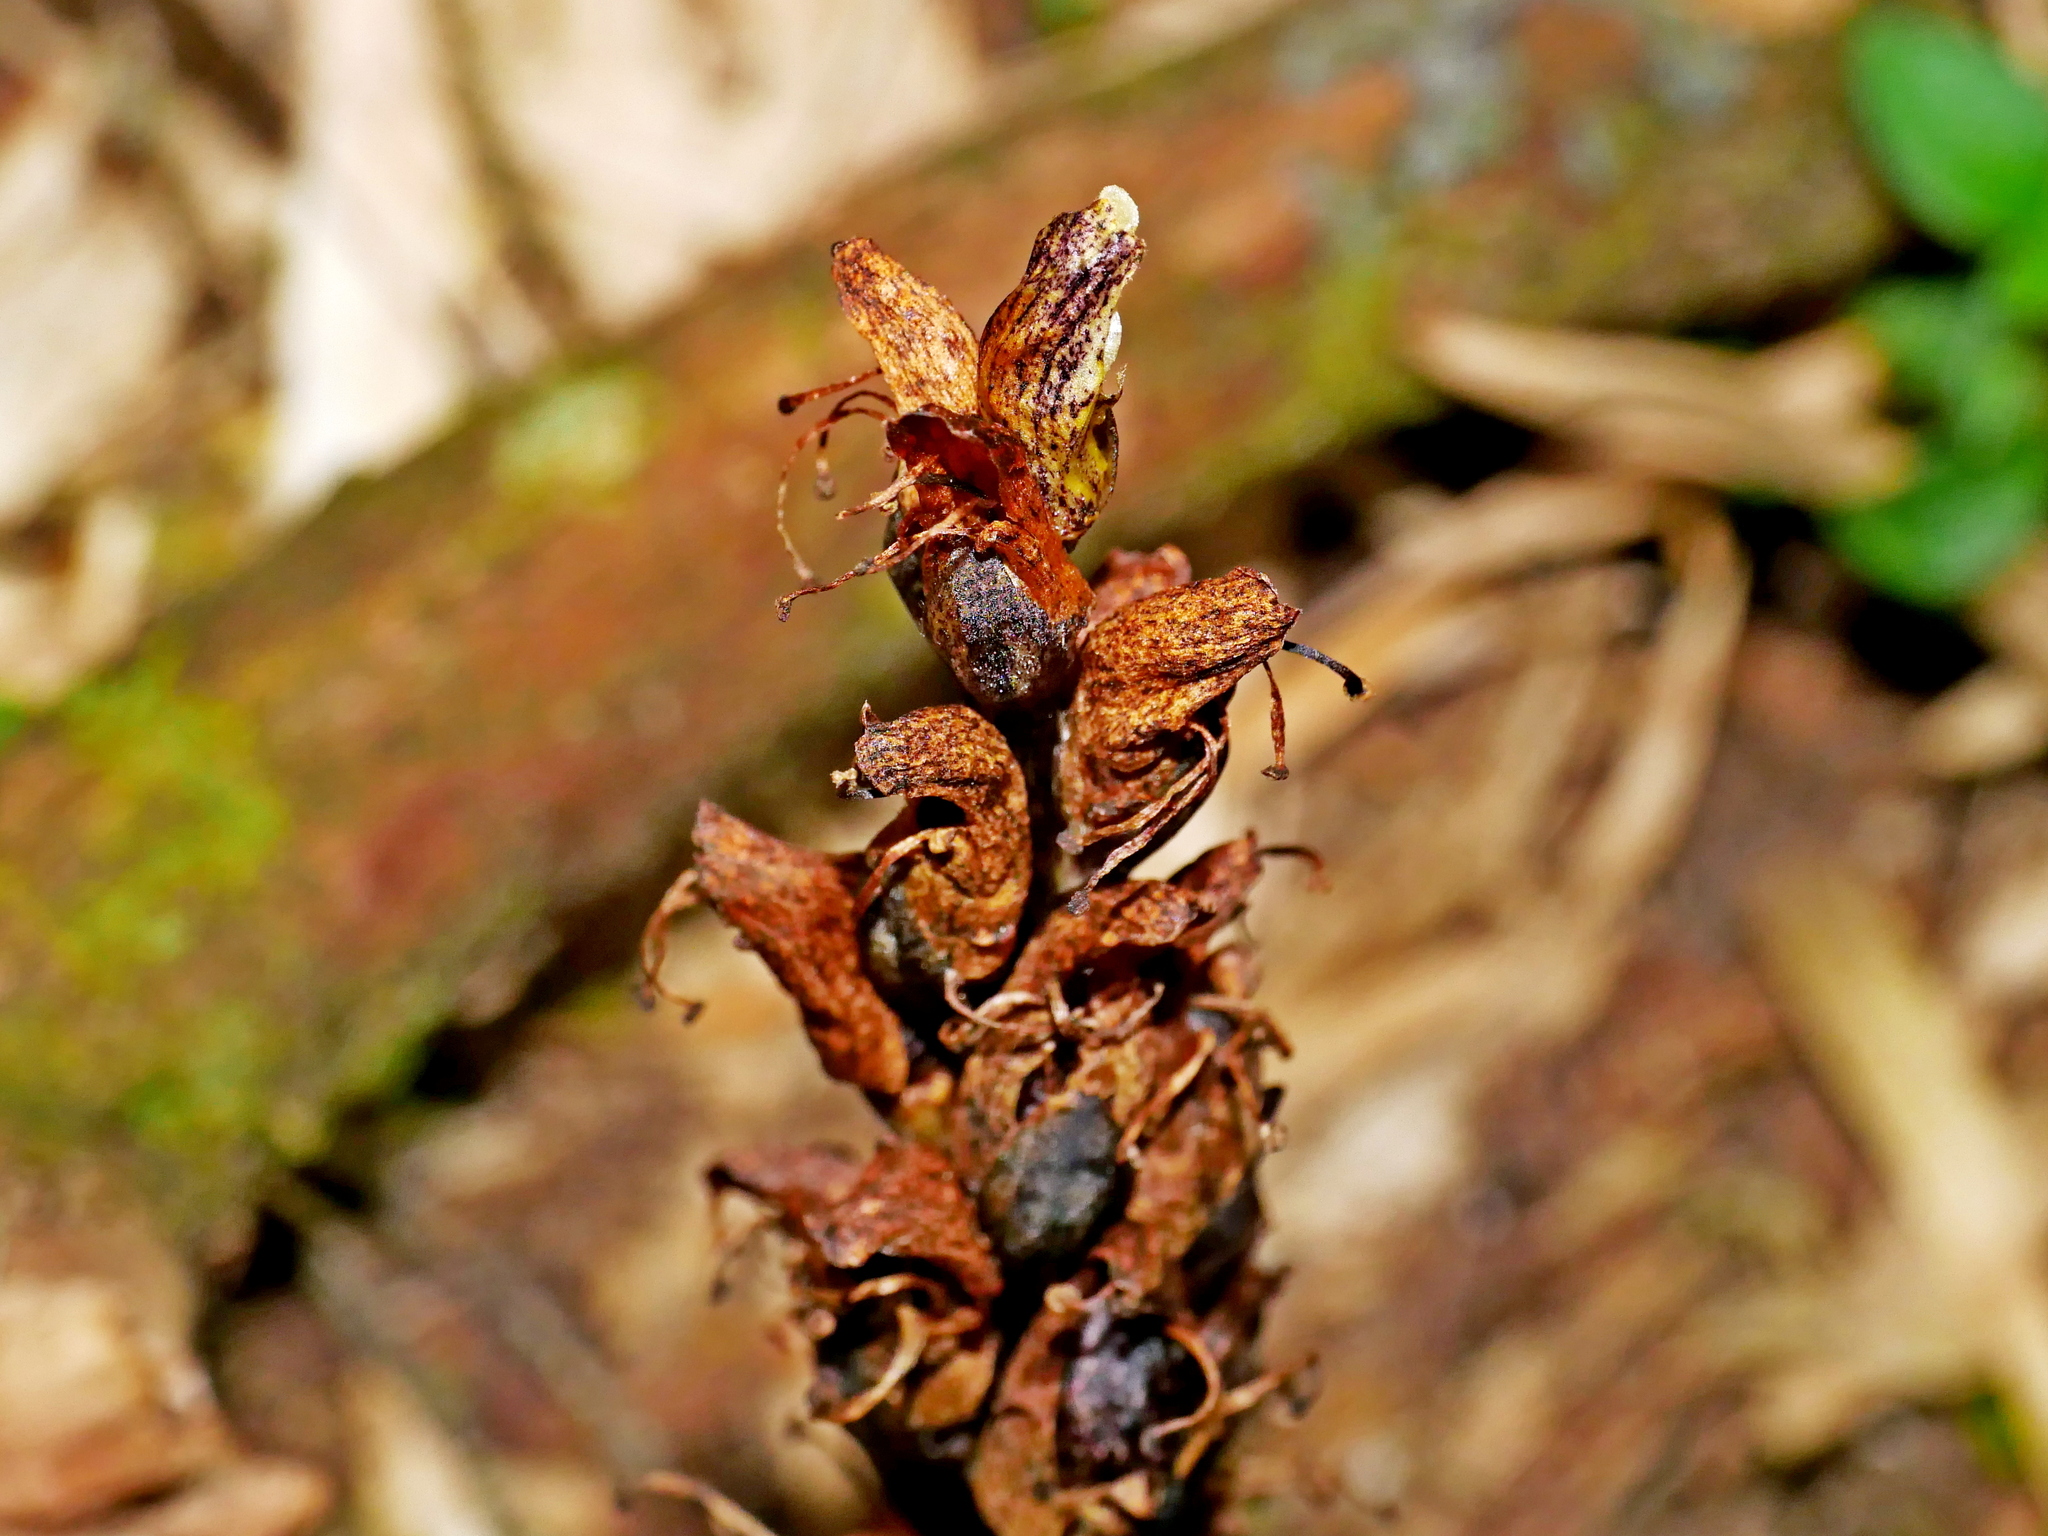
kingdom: Plantae
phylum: Tracheophyta
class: Magnoliopsida
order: Lamiales
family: Orobanchaceae
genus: Boschniakia
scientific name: Boschniakia himalaica
